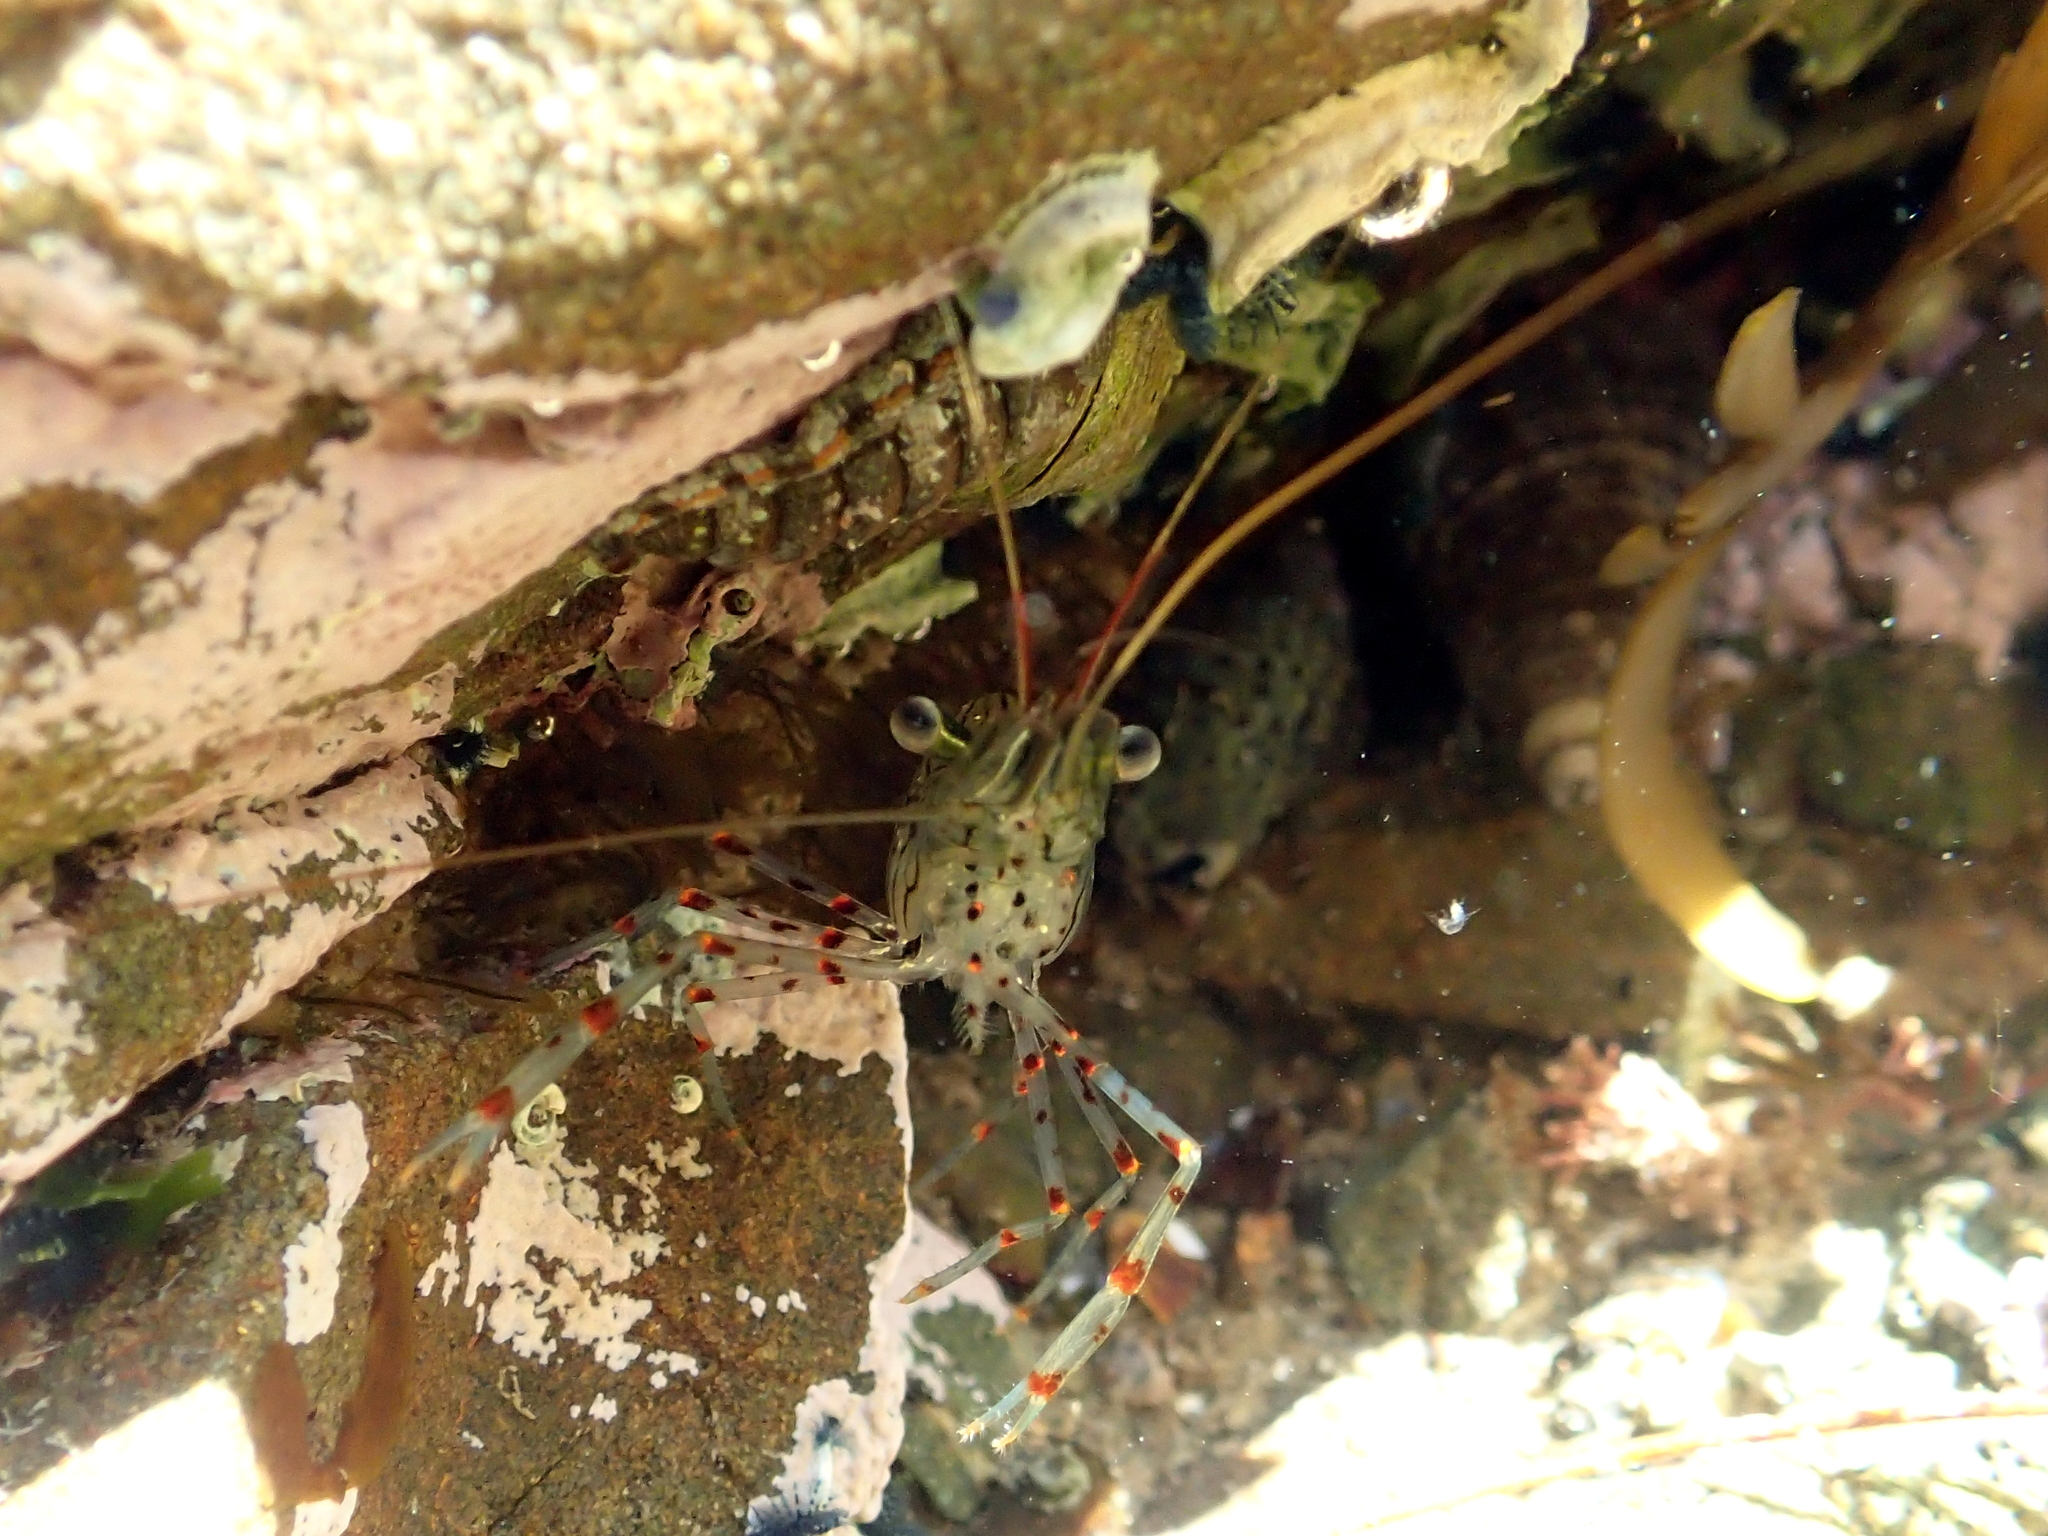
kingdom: Animalia
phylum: Arthropoda
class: Malacostraca
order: Decapoda
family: Palaemonidae
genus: Palaemon
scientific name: Palaemon affinis
